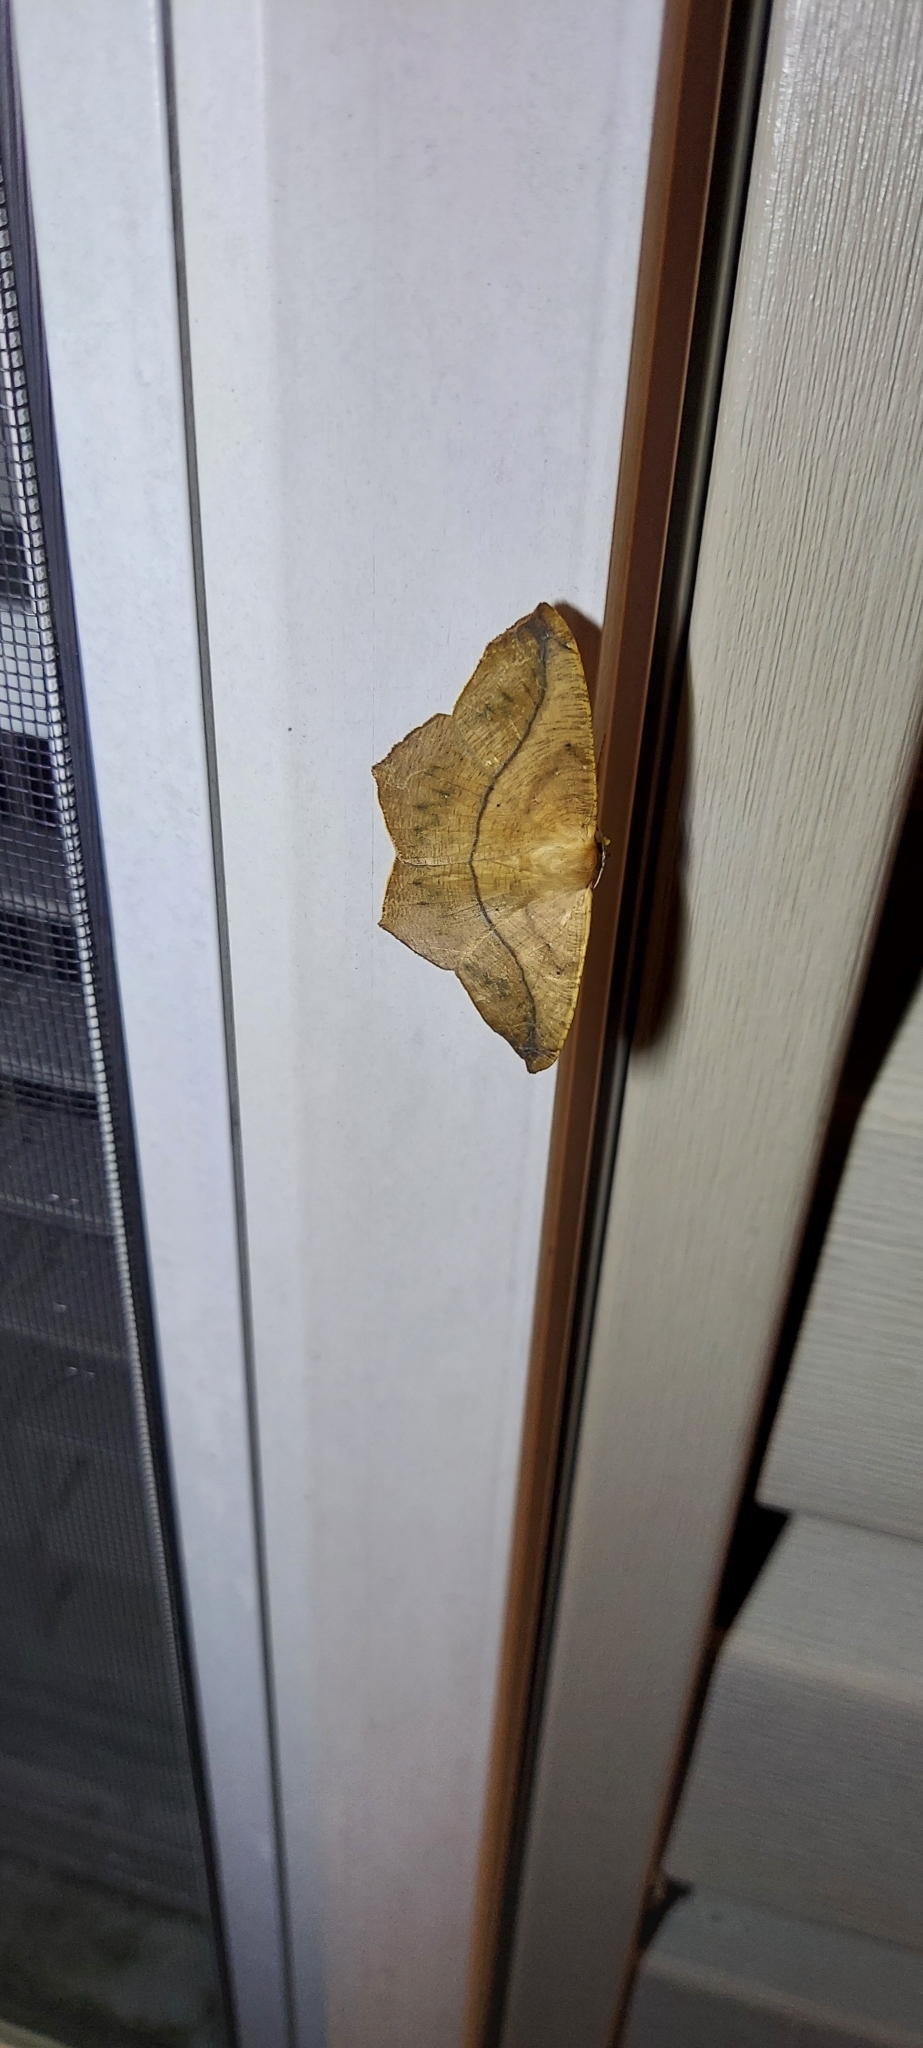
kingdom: Animalia
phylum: Arthropoda
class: Insecta
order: Lepidoptera
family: Geometridae
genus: Prochoerodes
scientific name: Prochoerodes lineola
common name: Large maple spanworm
